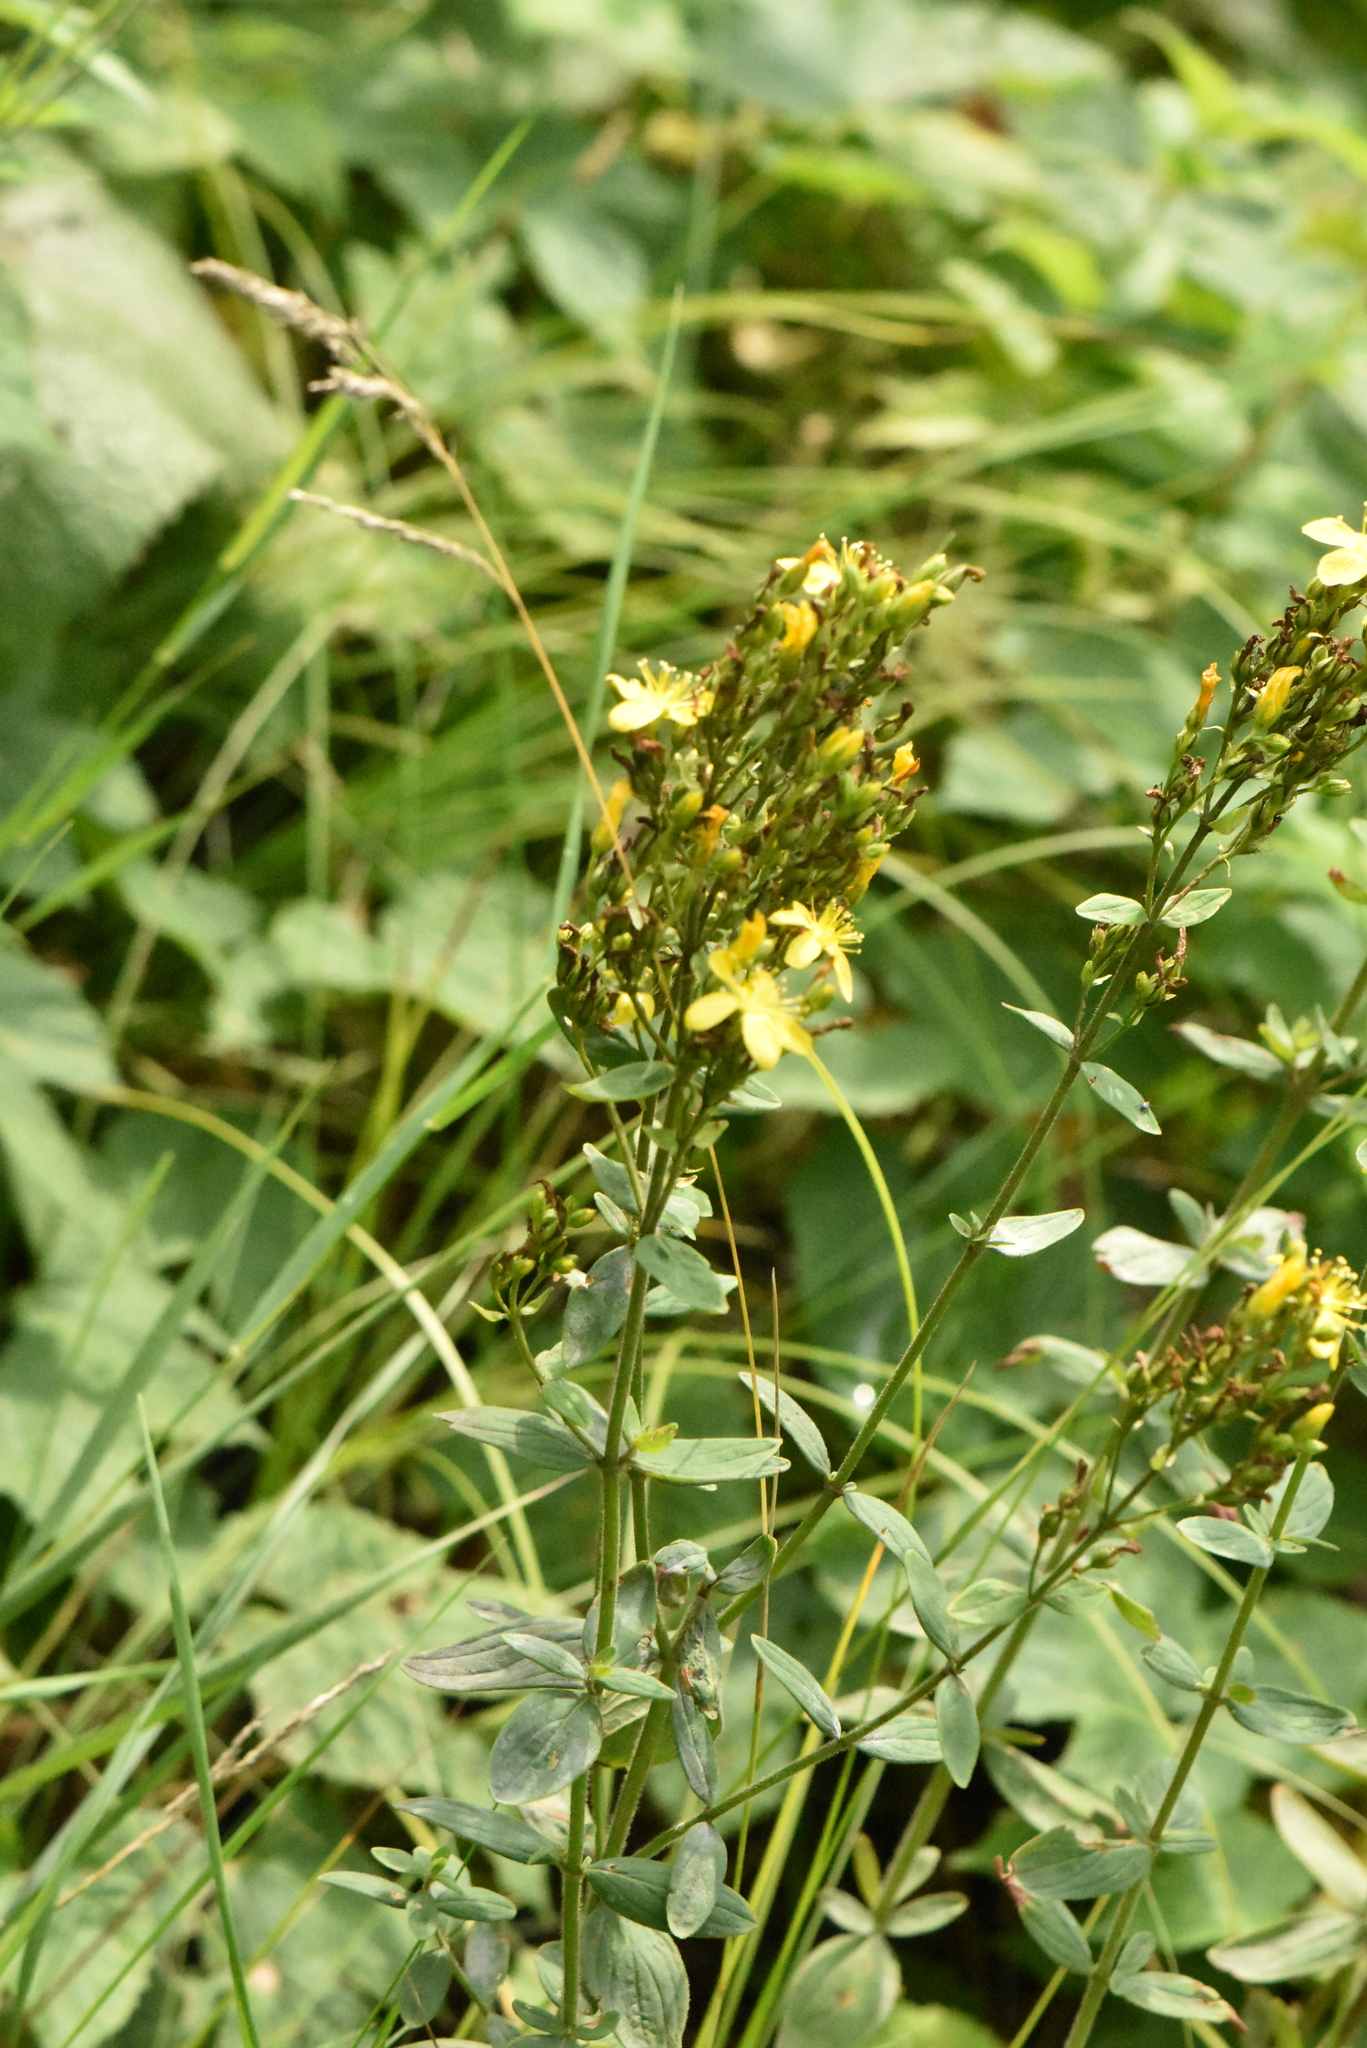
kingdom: Plantae
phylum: Tracheophyta
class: Magnoliopsida
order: Malpighiales
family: Hypericaceae
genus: Hypericum
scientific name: Hypericum hirsutum
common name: Hairy st. john's-wort
